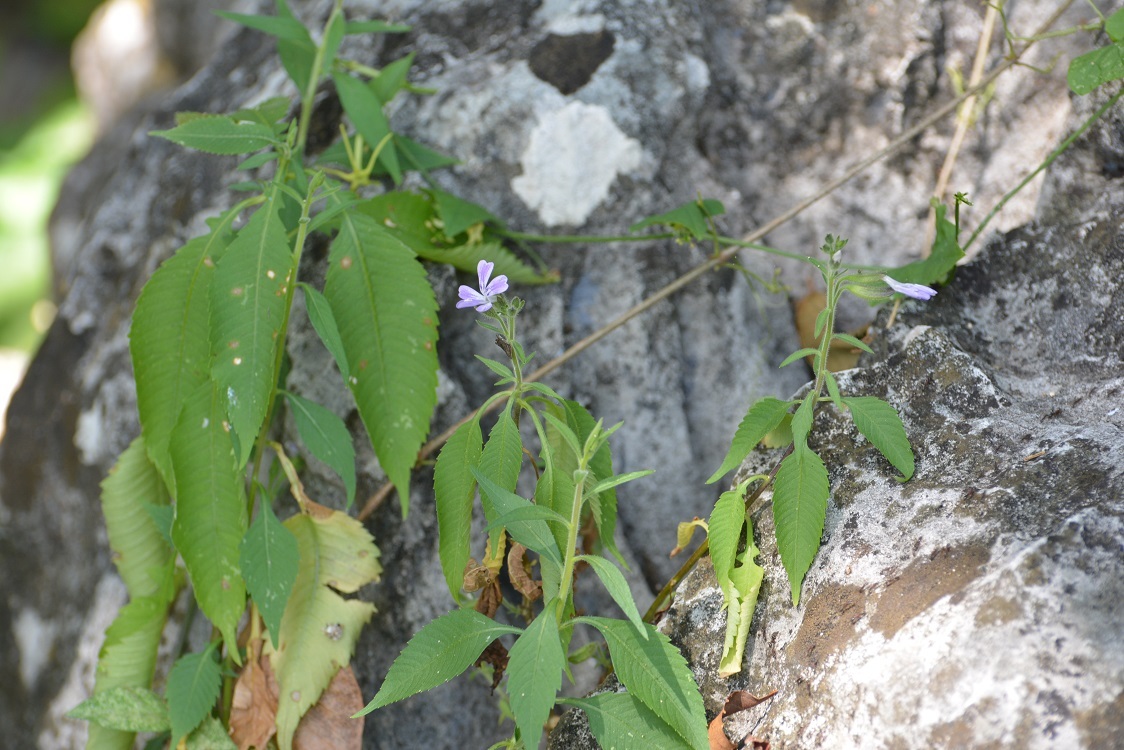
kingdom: Plantae
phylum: Tracheophyta
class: Magnoliopsida
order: Ericales
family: Polemoniaceae
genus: Bonplandia
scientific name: Bonplandia geminiflora
